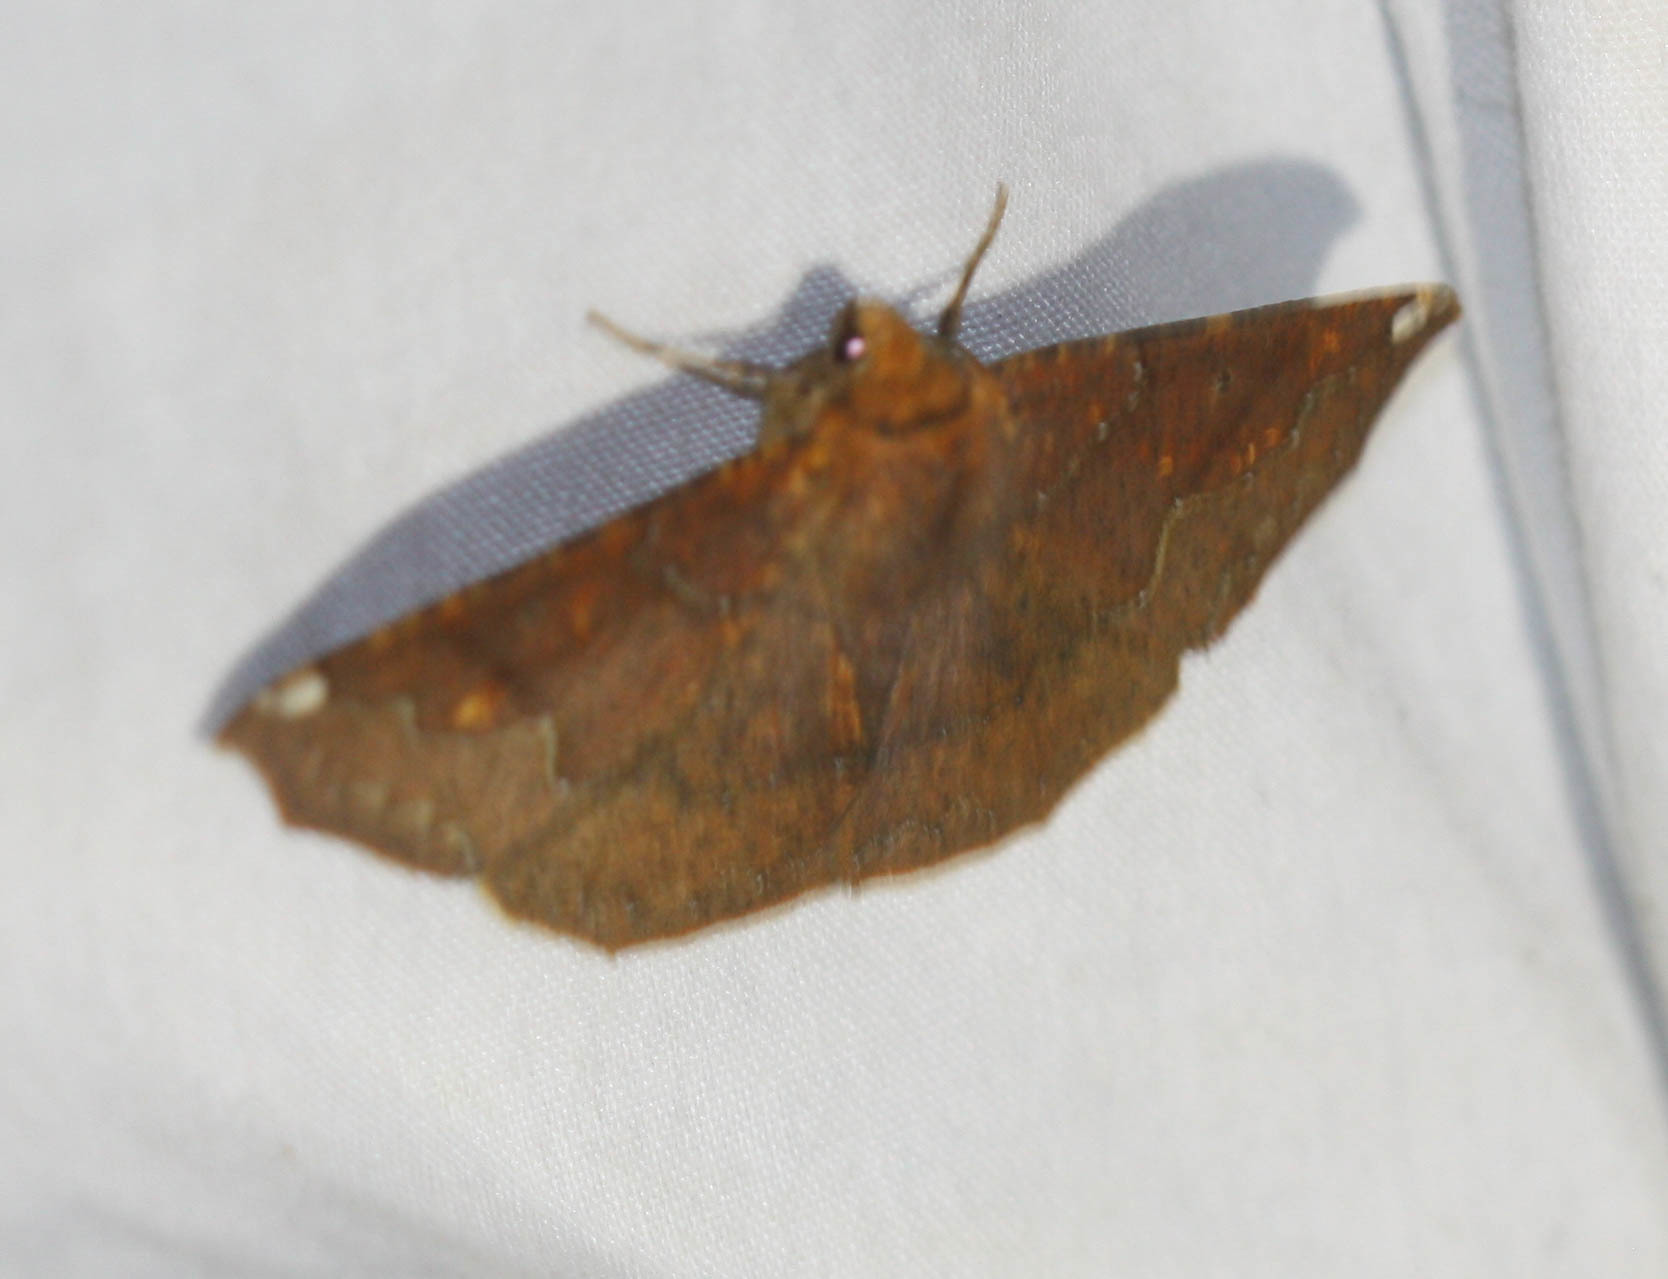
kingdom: Animalia
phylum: Arthropoda
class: Insecta
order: Lepidoptera
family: Geometridae
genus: Acrosemia
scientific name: Acrosemia undilinea
